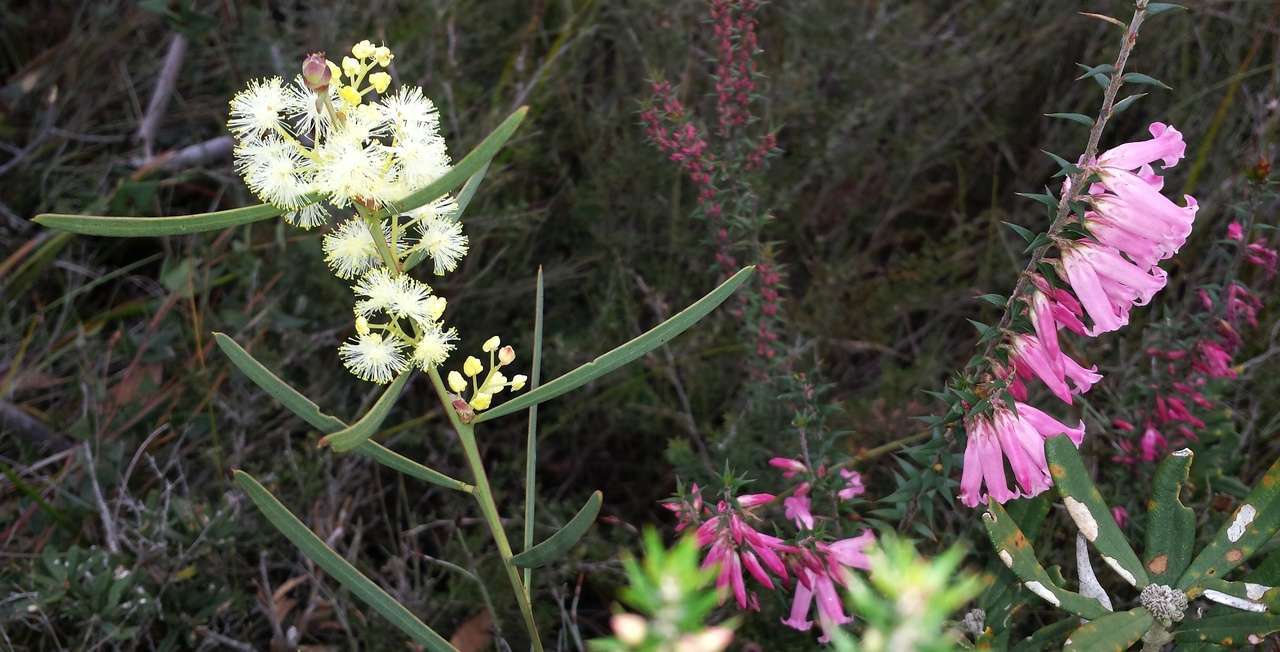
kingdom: Plantae
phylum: Tracheophyta
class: Magnoliopsida
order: Ericales
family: Ericaceae
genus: Epacris
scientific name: Epacris impressa
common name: Common-heath
